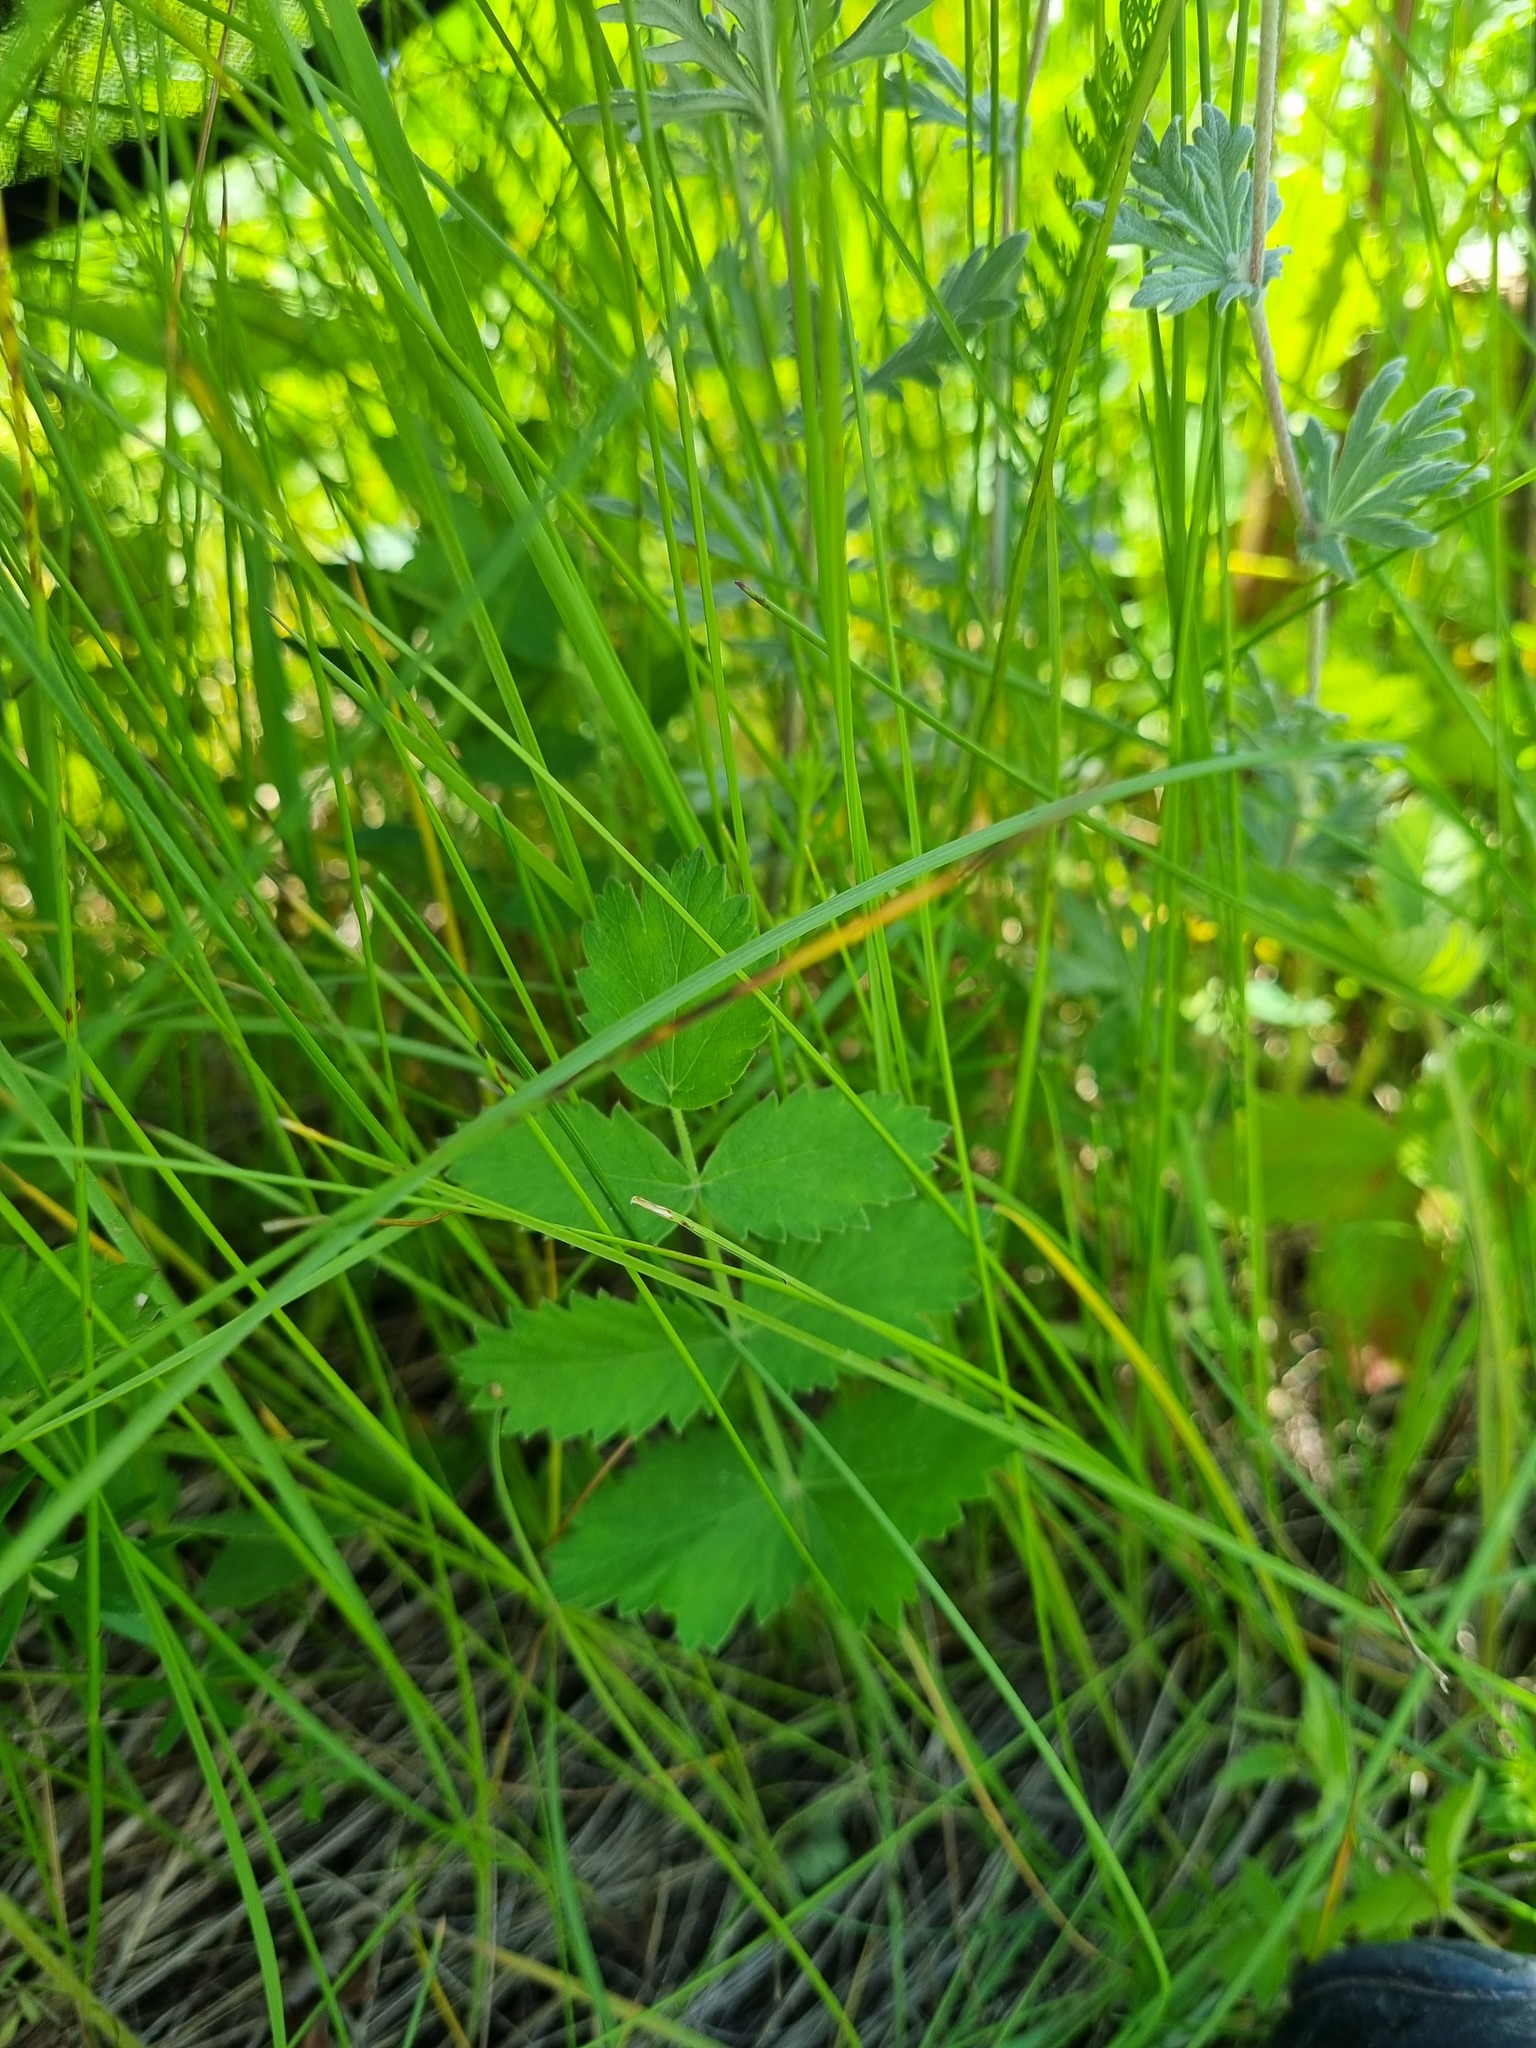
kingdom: Plantae
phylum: Tracheophyta
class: Magnoliopsida
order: Apiales
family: Apiaceae
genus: Pimpinella
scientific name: Pimpinella saxifraga
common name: Burnet-saxifrage
